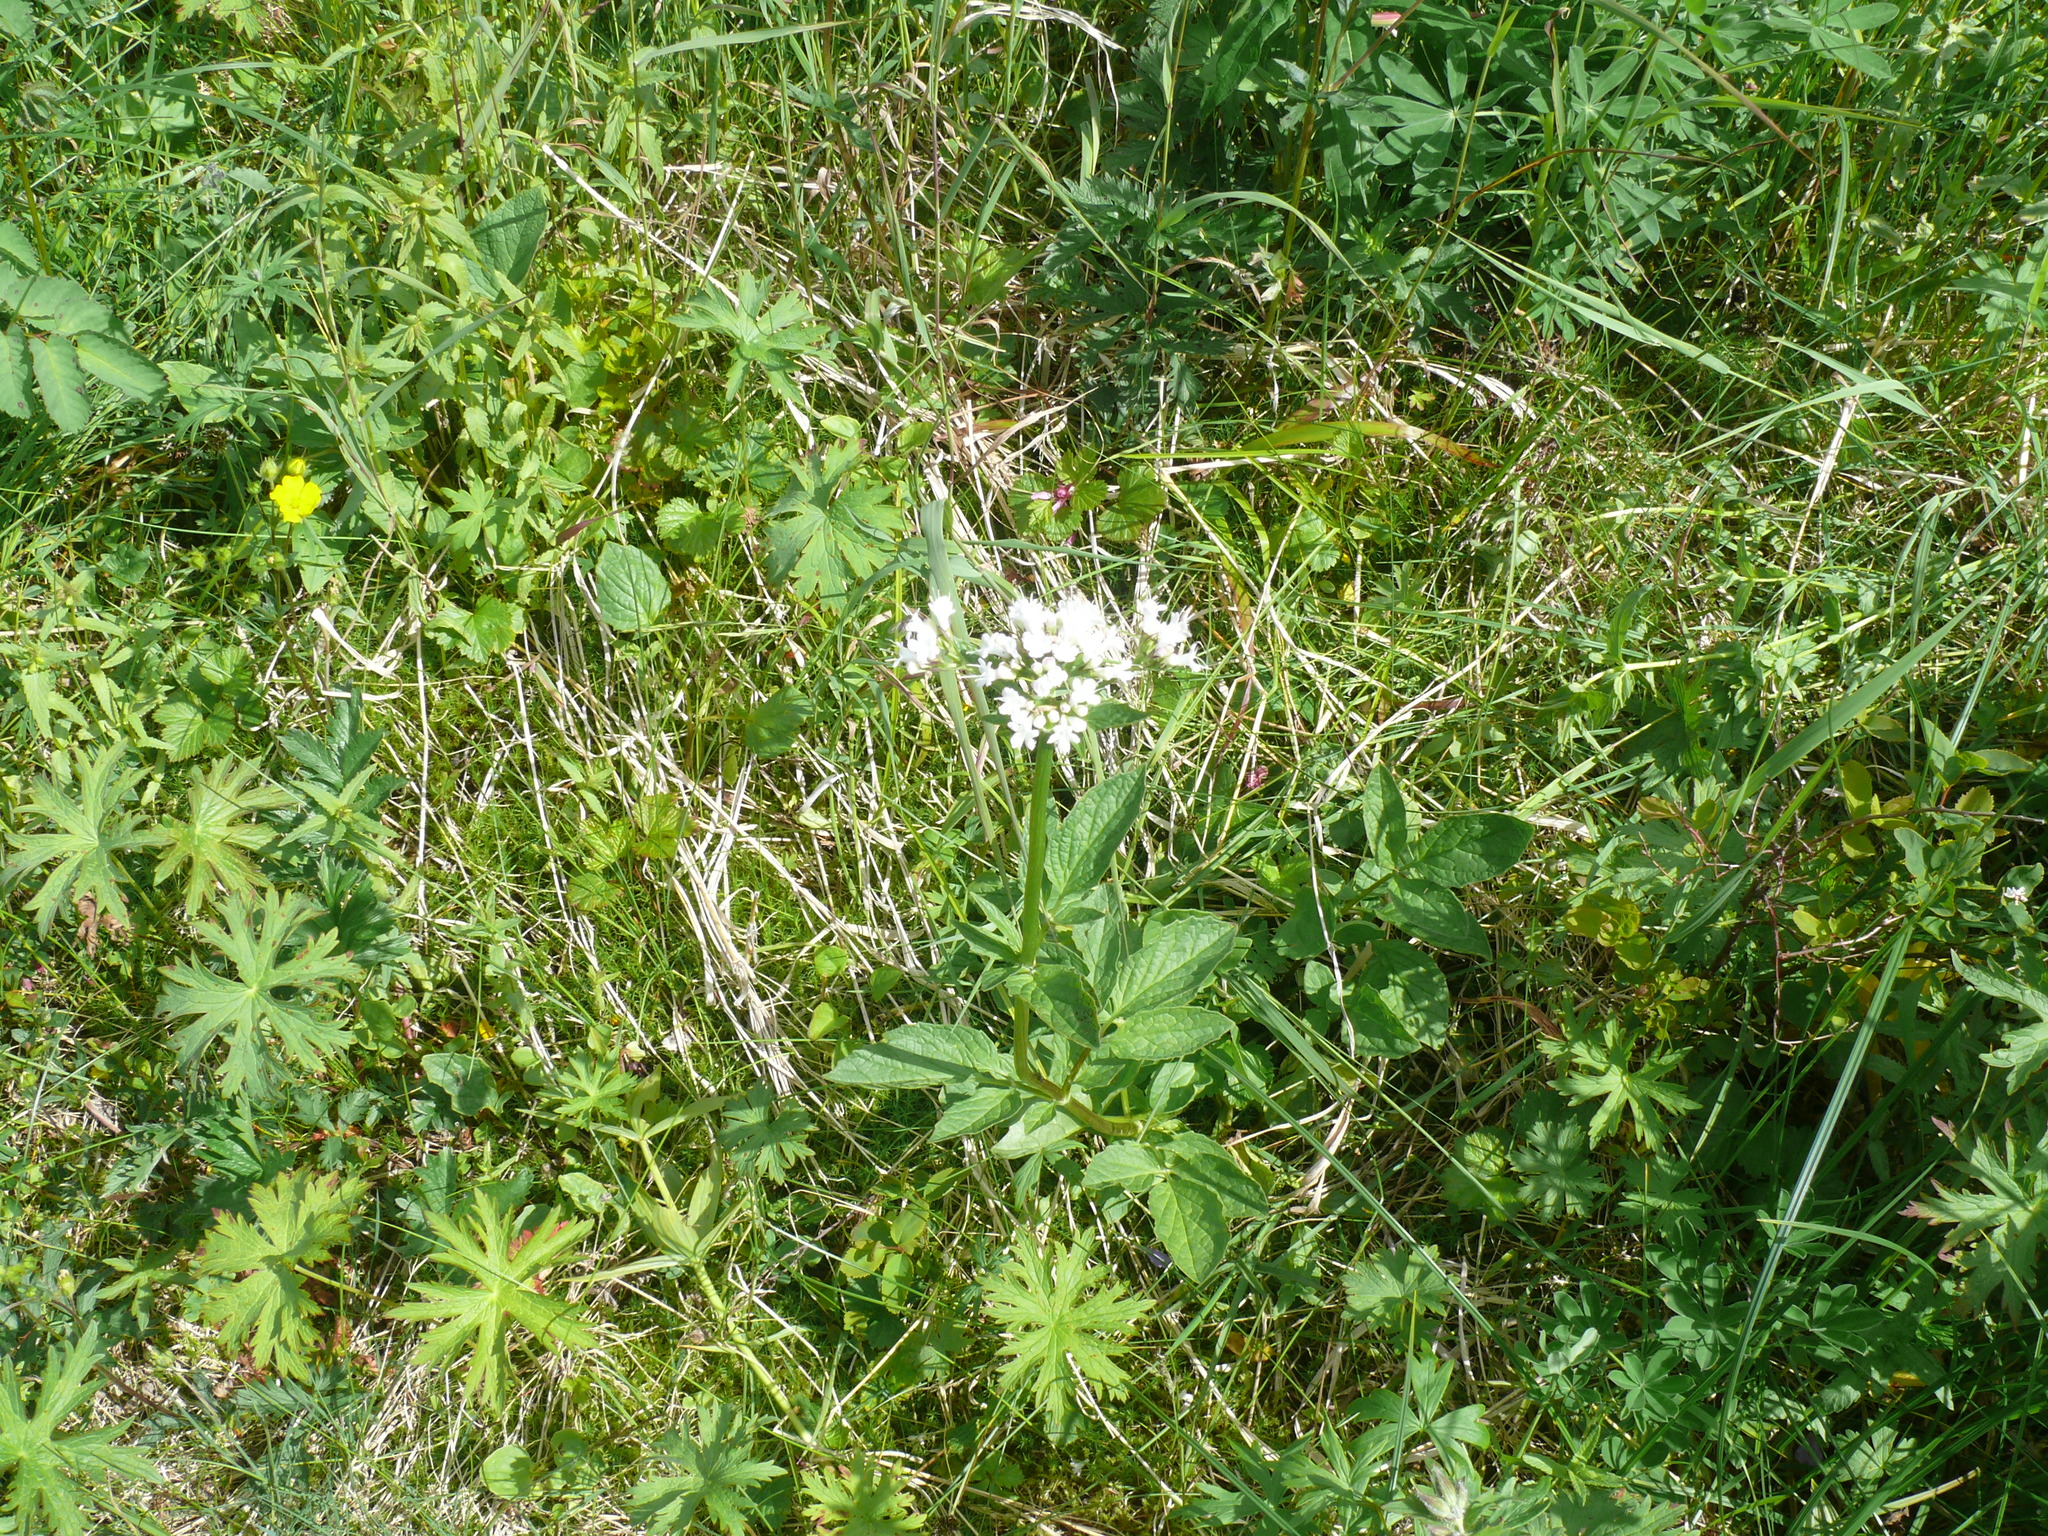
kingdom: Plantae
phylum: Tracheophyta
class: Magnoliopsida
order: Dipsacales
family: Caprifoliaceae
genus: Valeriana
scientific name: Valeriana sitchensis
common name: Pacific valerian
